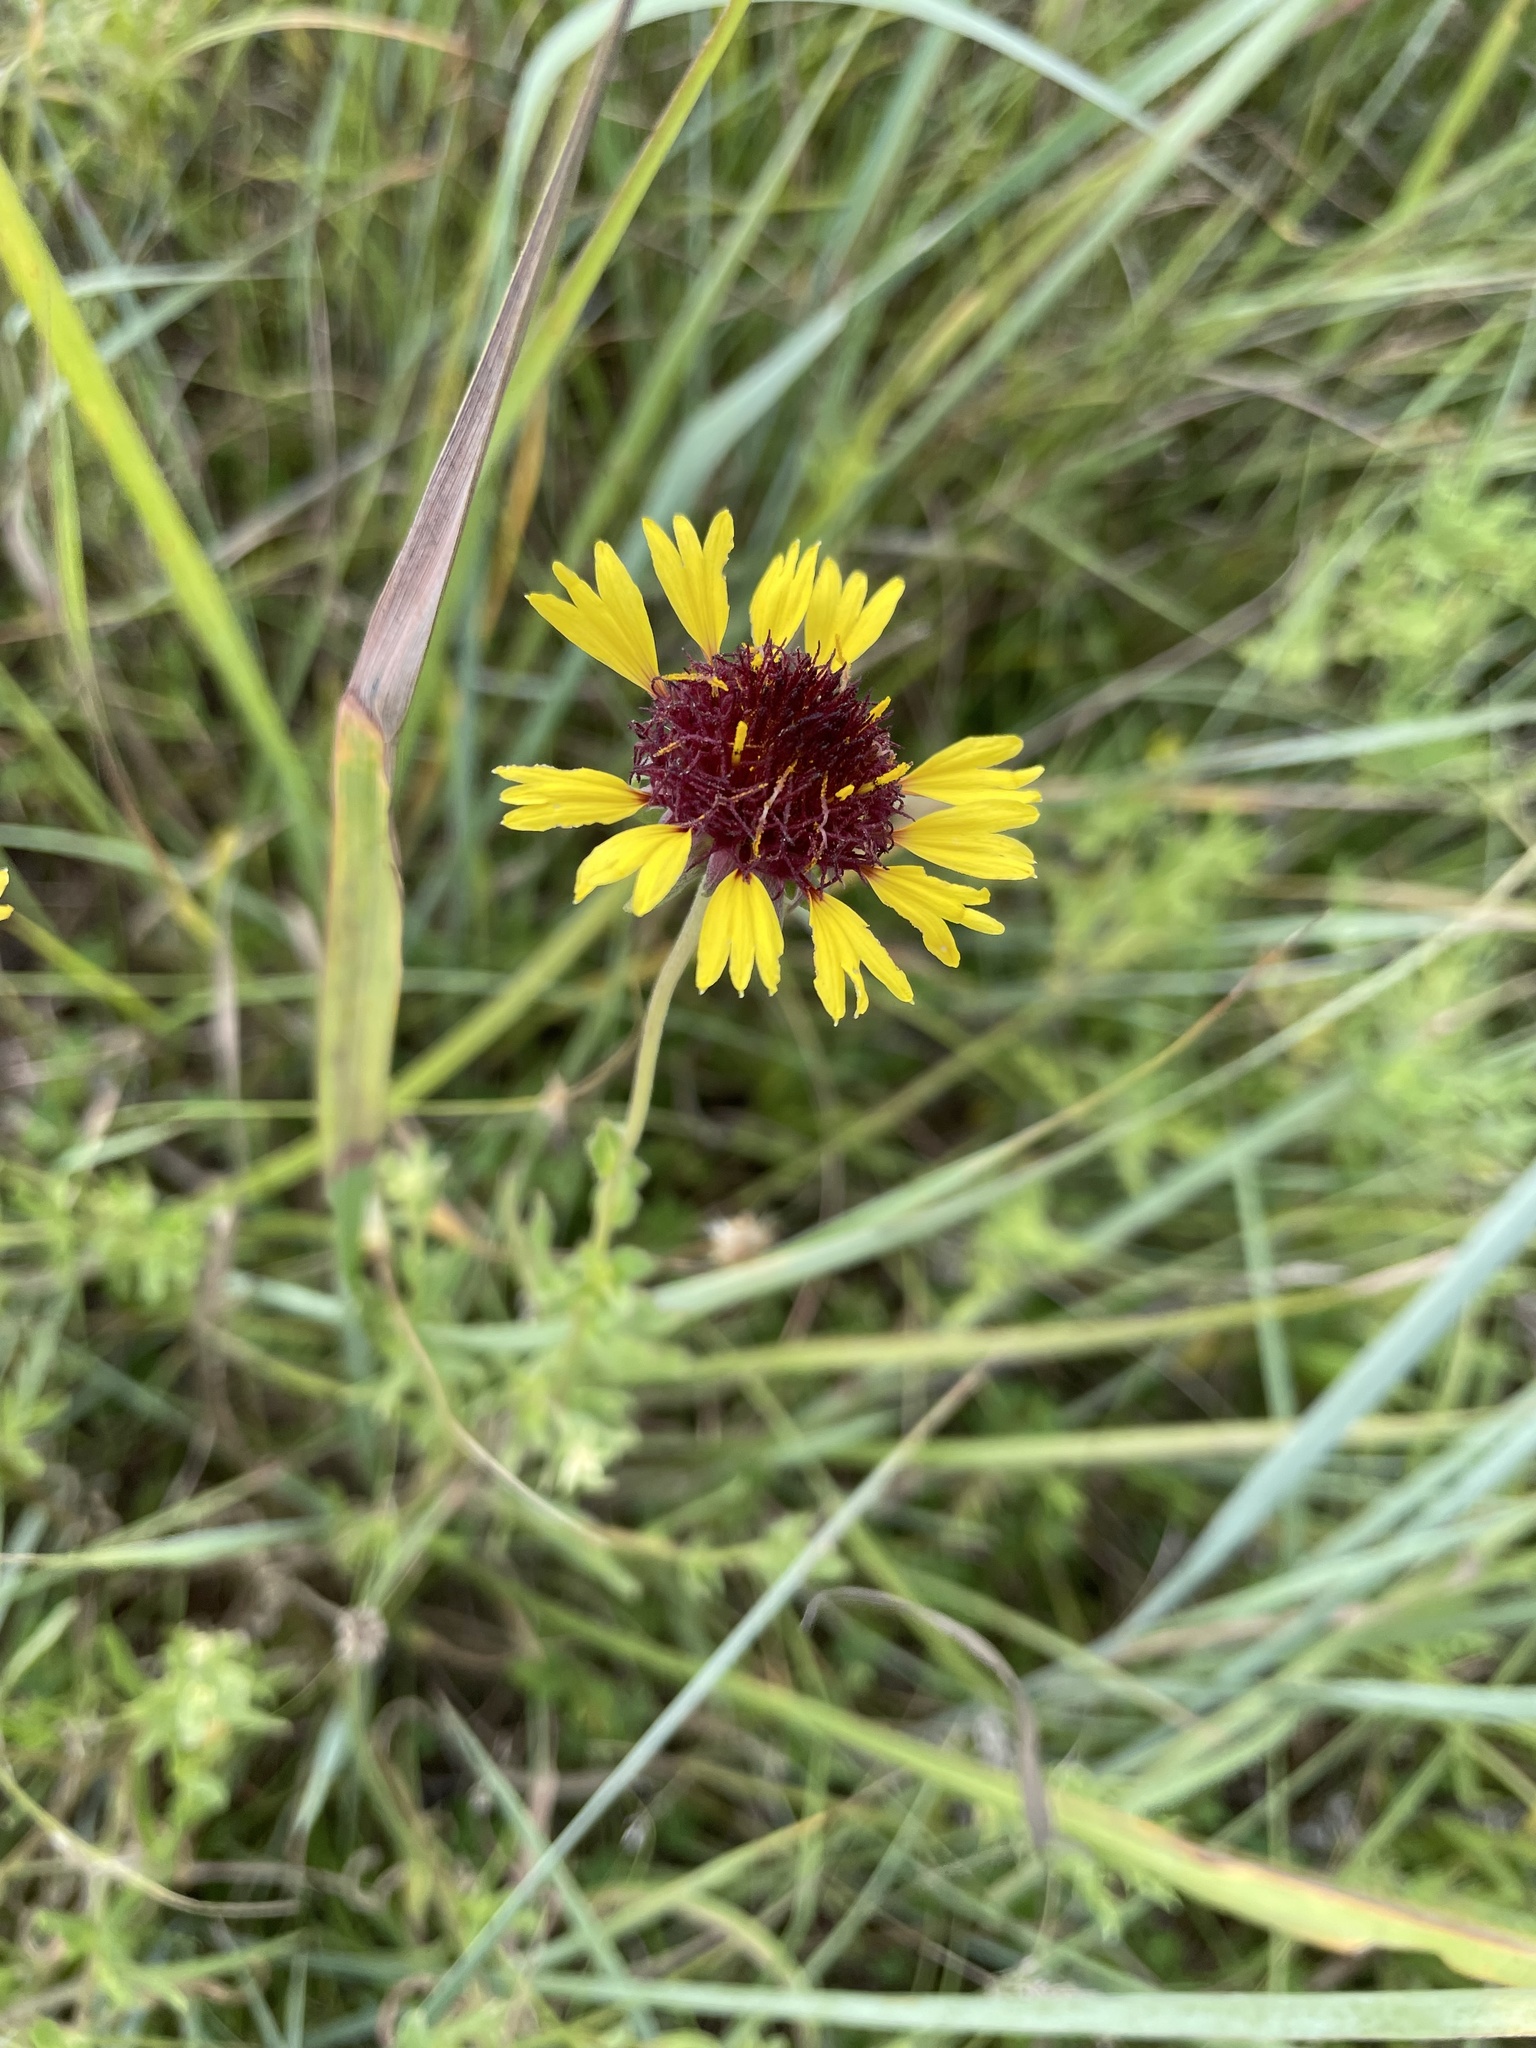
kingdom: Plantae
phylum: Tracheophyta
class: Magnoliopsida
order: Asterales
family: Asteraceae
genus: Gaillardia
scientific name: Gaillardia aestivalis
